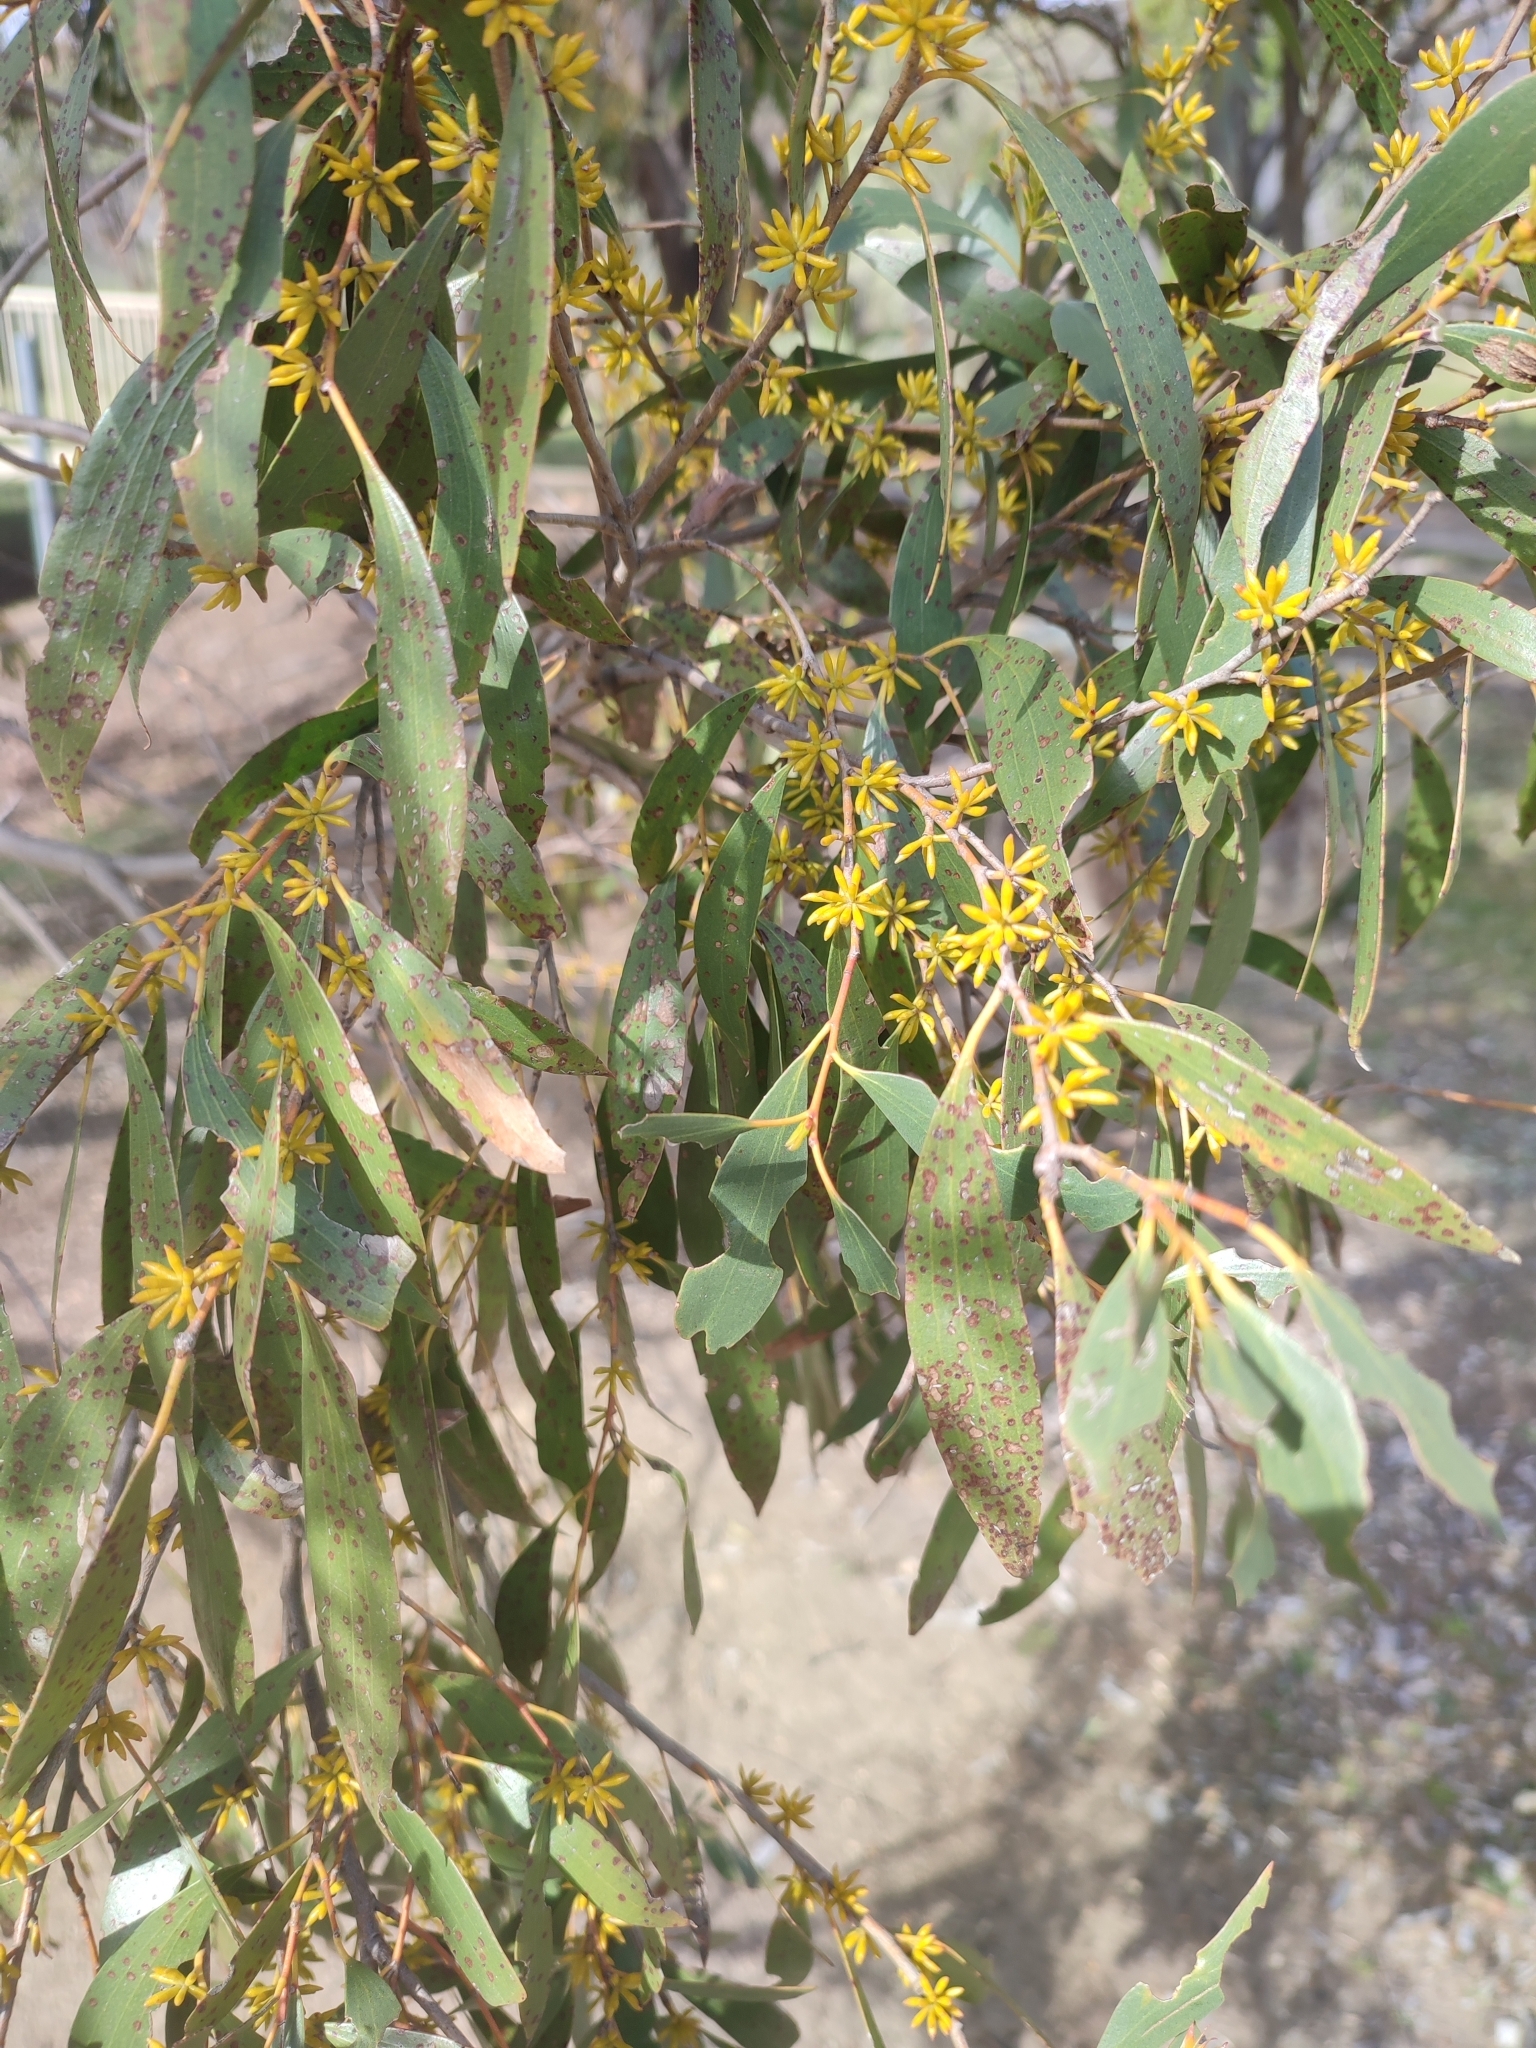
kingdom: Plantae
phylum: Tracheophyta
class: Magnoliopsida
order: Myrtales
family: Myrtaceae
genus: Eucalyptus
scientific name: Eucalyptus stellulata
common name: Black sallee
